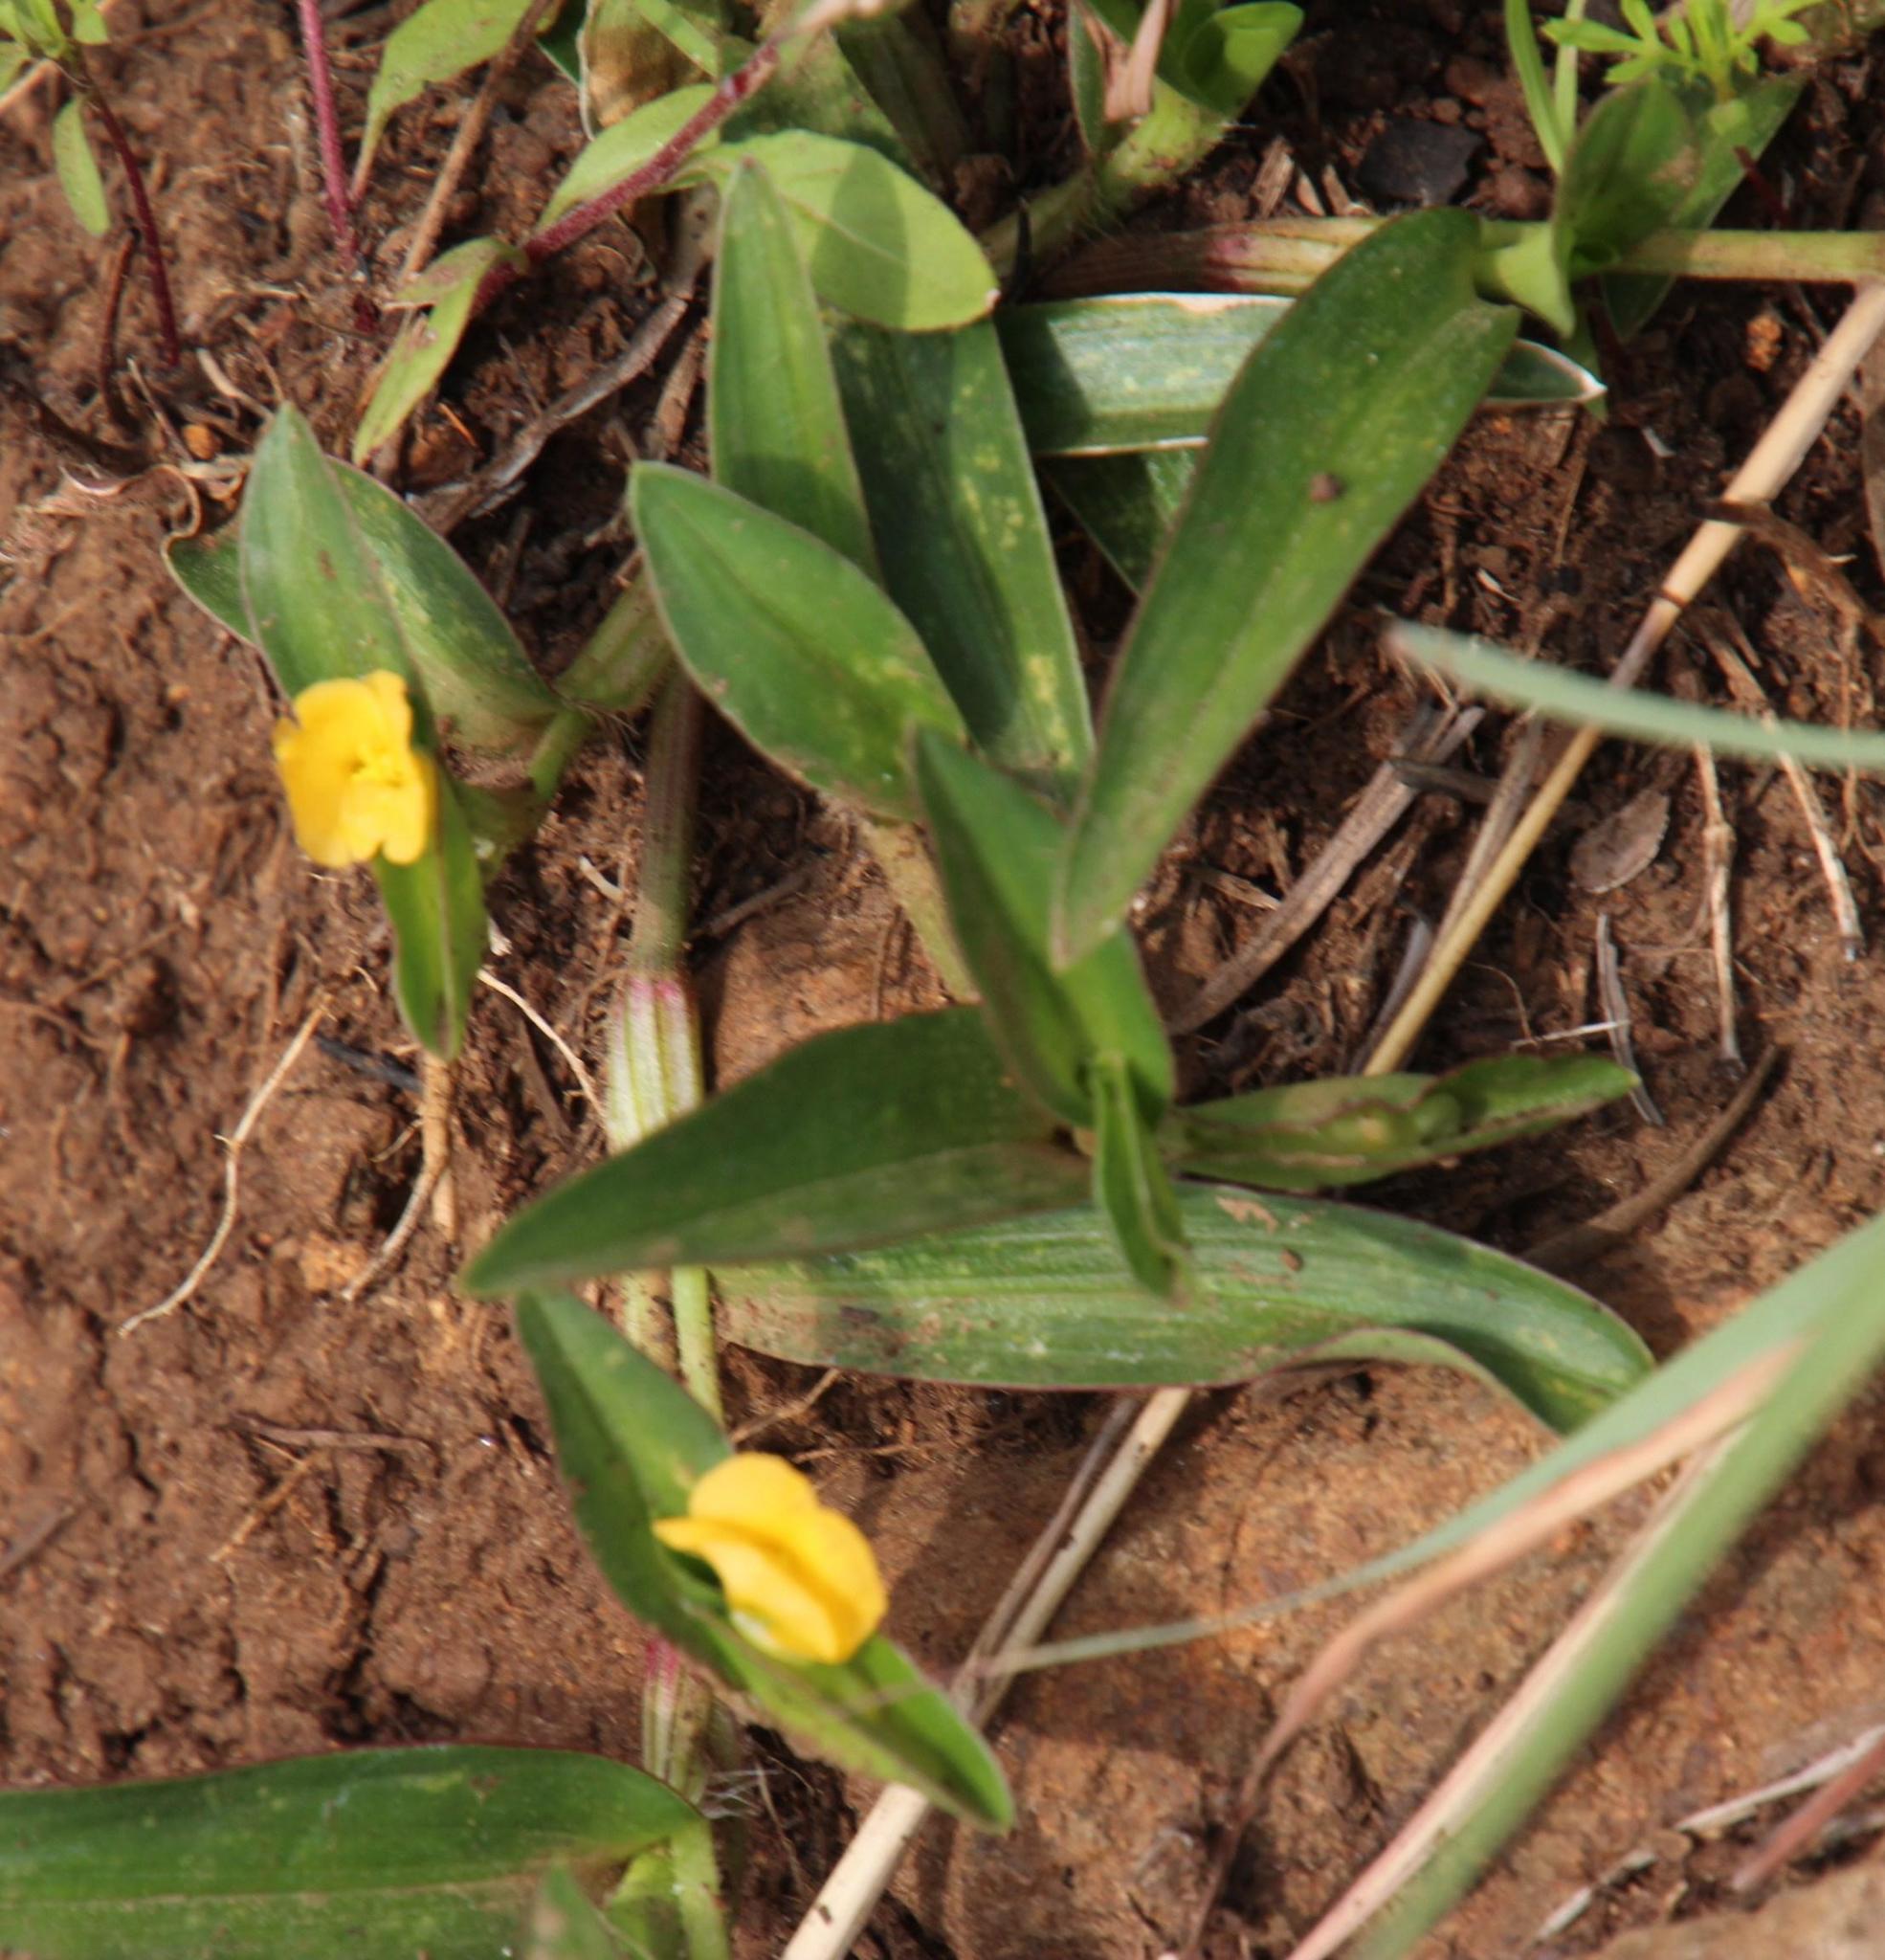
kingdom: Plantae
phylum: Tracheophyta
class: Liliopsida
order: Commelinales
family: Commelinaceae
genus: Commelina
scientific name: Commelina africana
